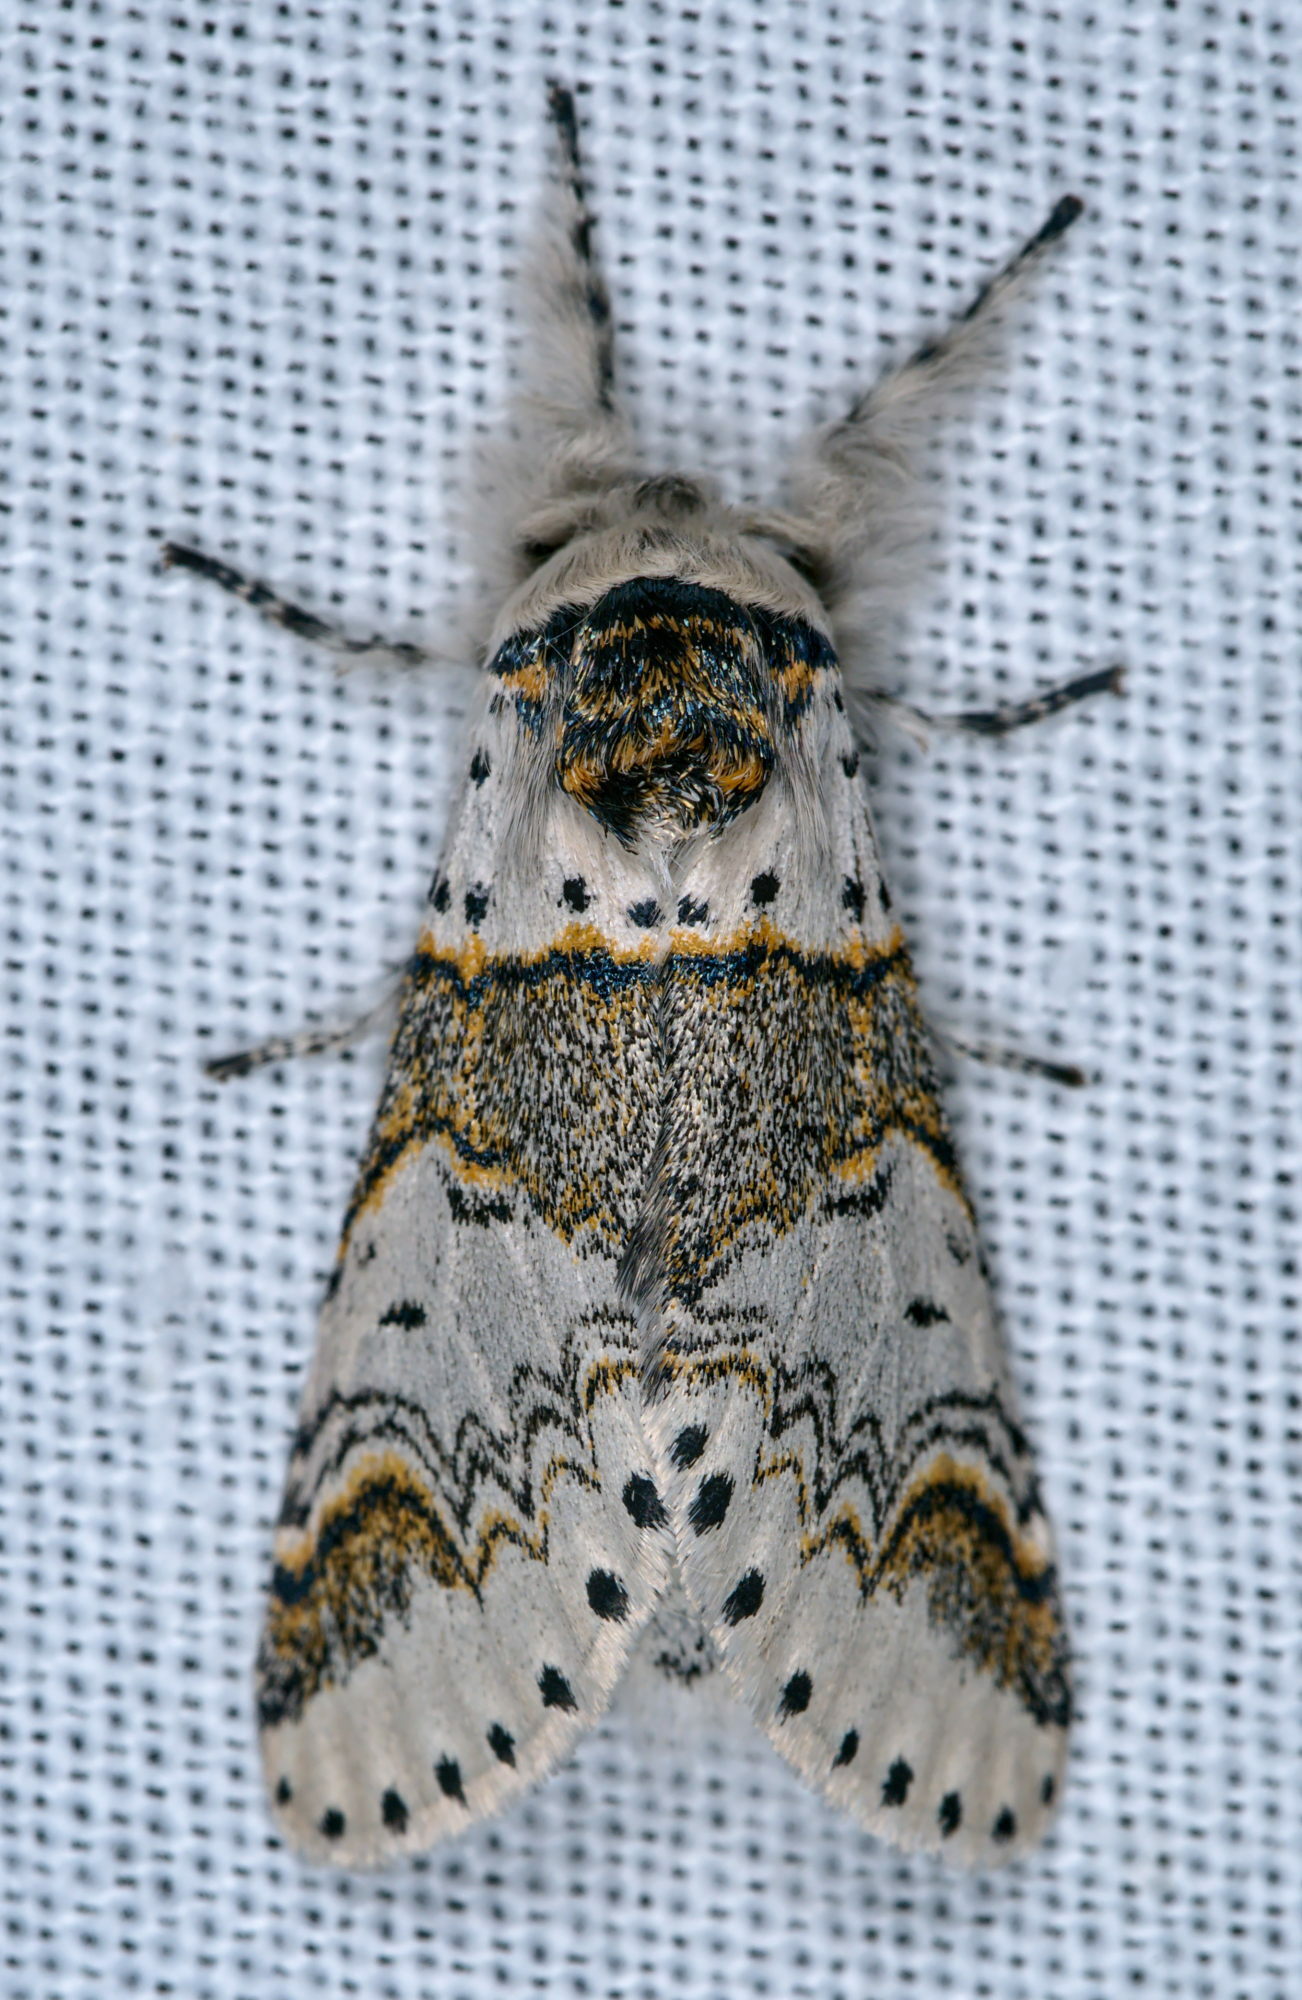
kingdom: Animalia
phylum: Arthropoda
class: Insecta
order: Lepidoptera
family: Notodontidae
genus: Furcula
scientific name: Furcula furcula
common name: Sallow kitten
